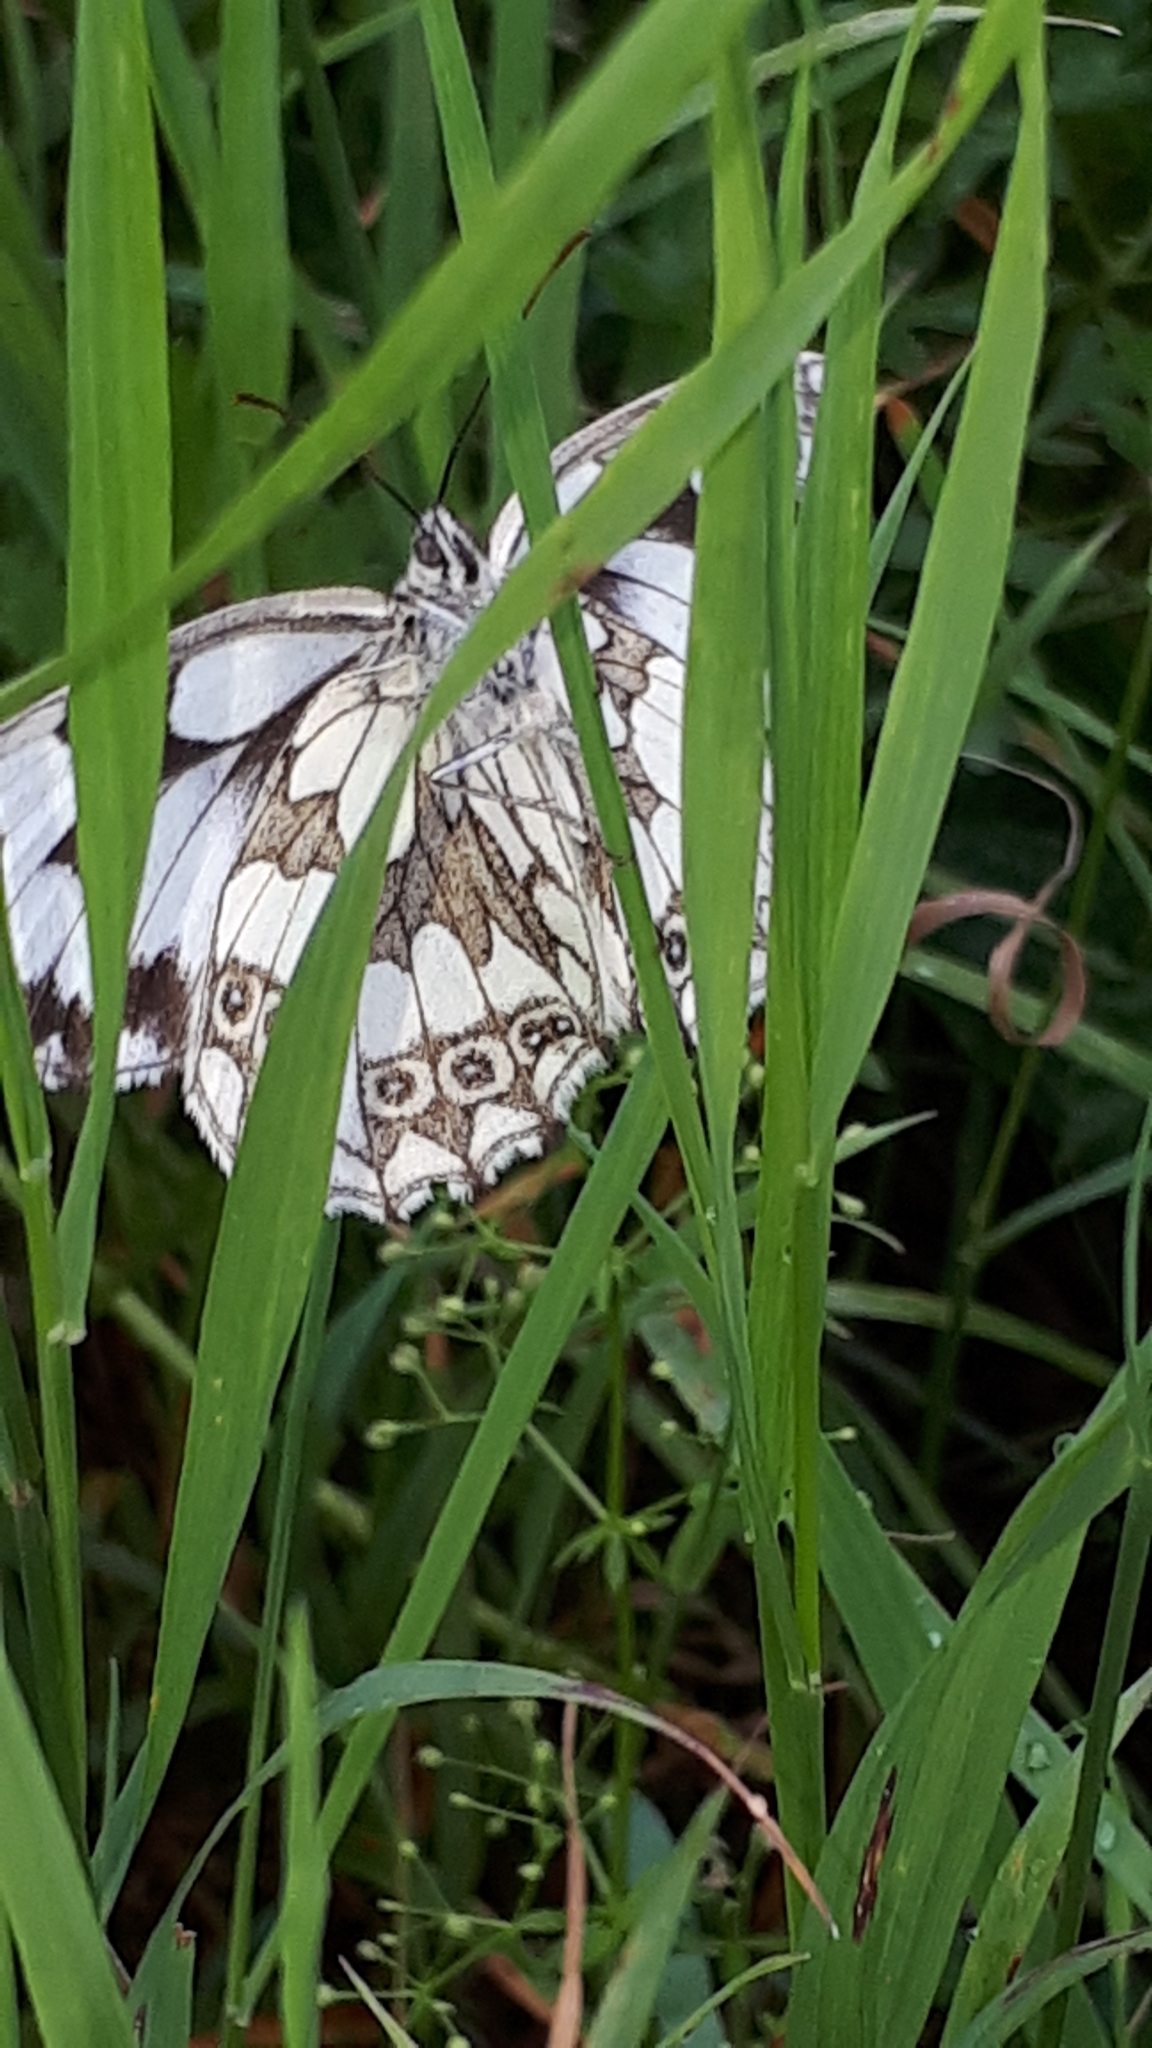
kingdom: Animalia
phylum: Arthropoda
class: Insecta
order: Lepidoptera
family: Nymphalidae
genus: Melanargia
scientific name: Melanargia galathea
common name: Marbled white
